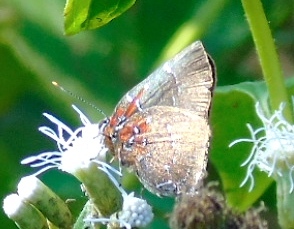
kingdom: Animalia
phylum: Arthropoda
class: Insecta
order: Lepidoptera
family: Lycaenidae
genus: Atlides
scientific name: Atlides Brangas neora
